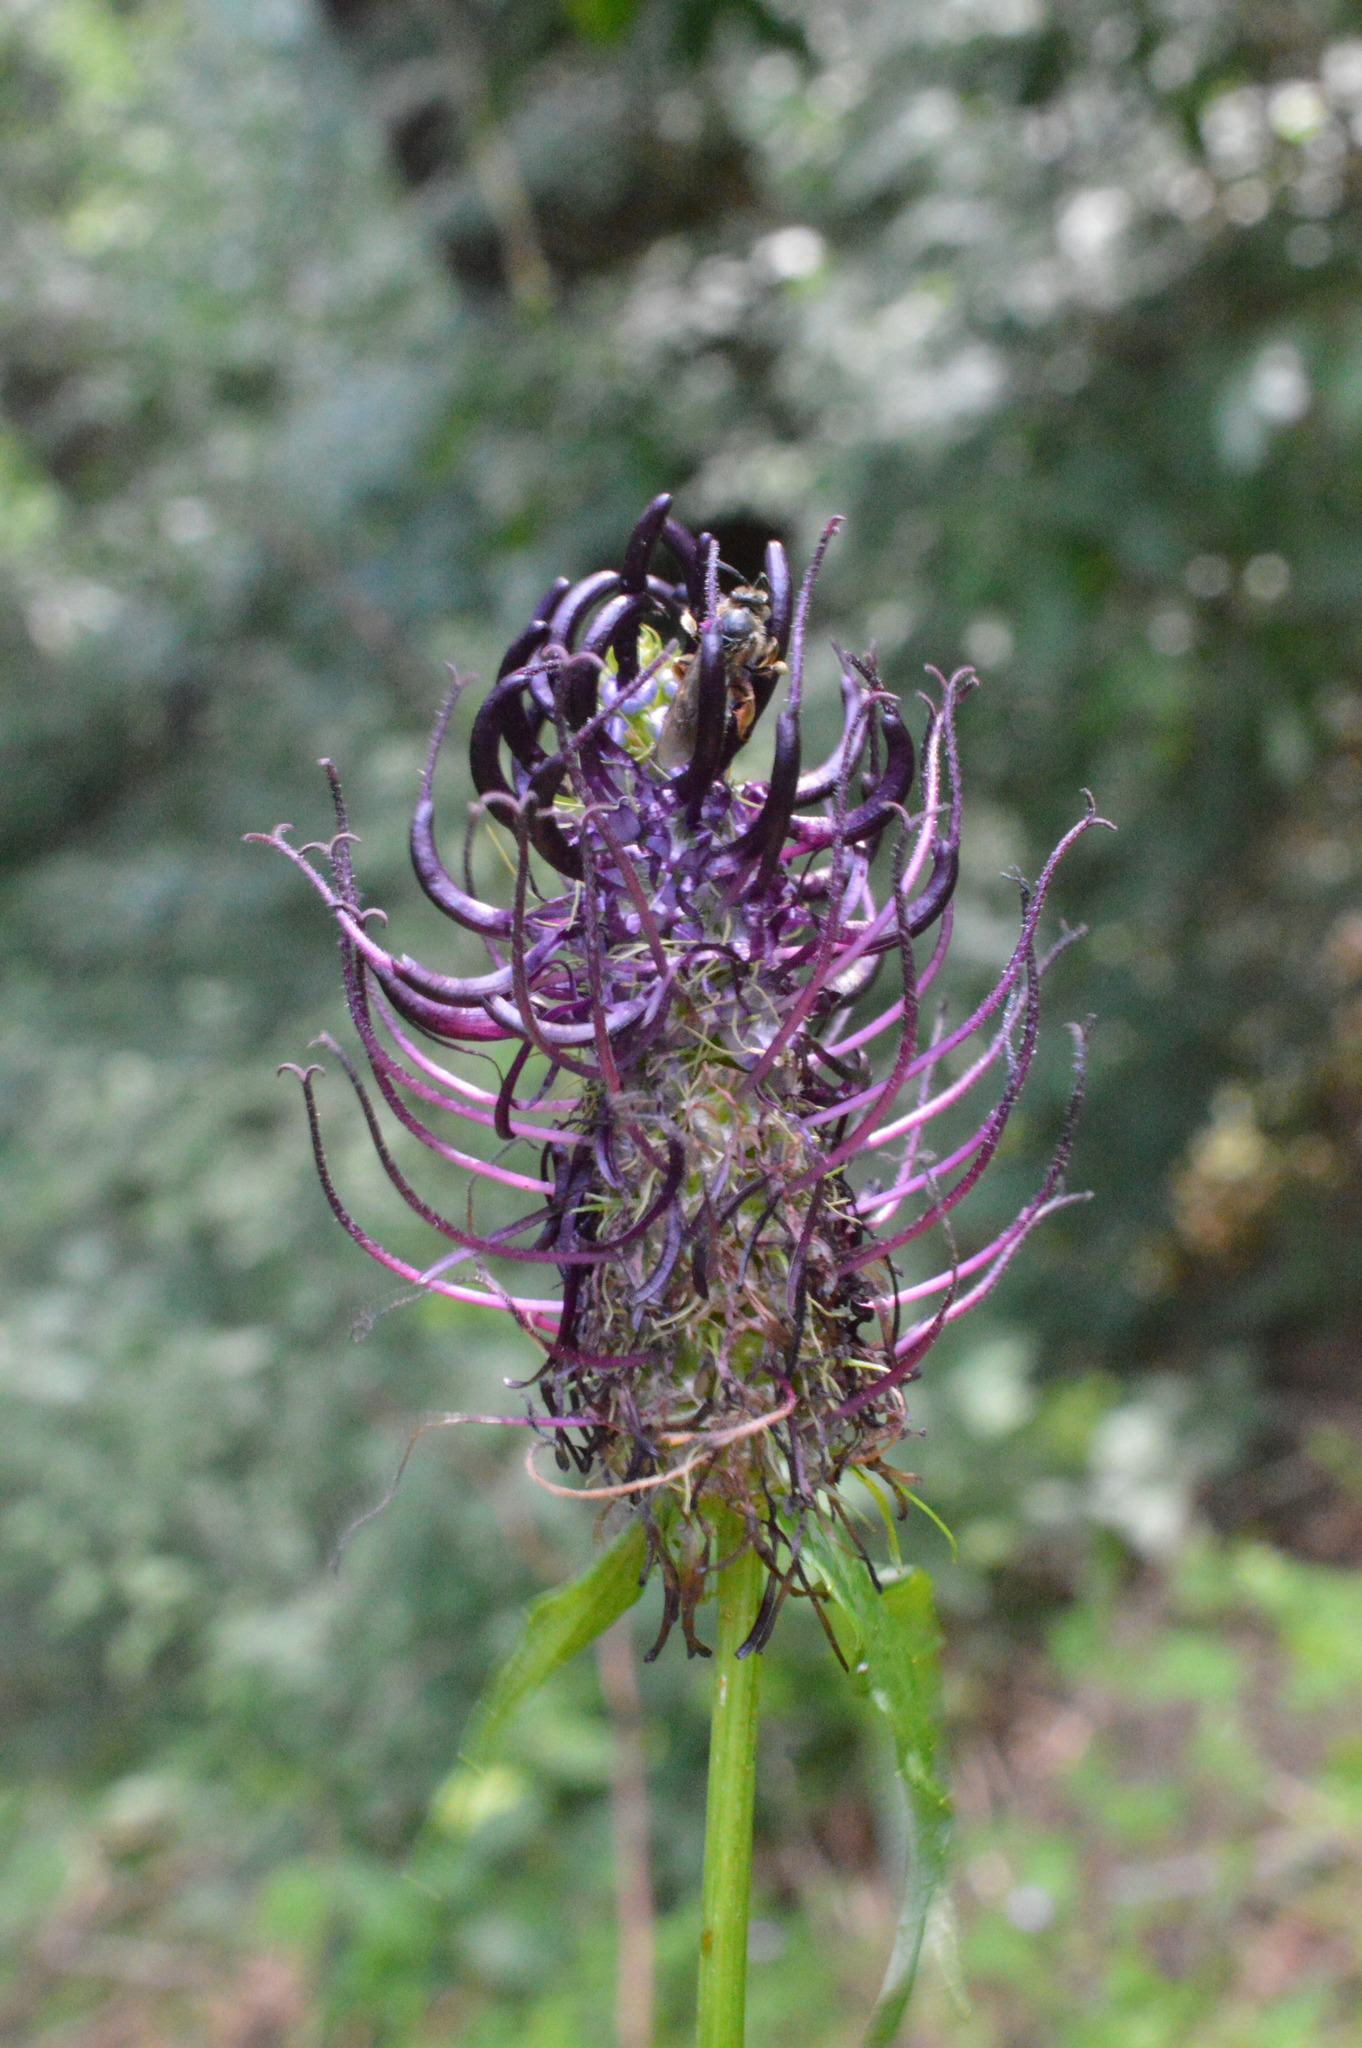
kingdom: Plantae
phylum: Tracheophyta
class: Magnoliopsida
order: Asterales
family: Campanulaceae
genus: Phyteuma
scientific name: Phyteuma ovatum
